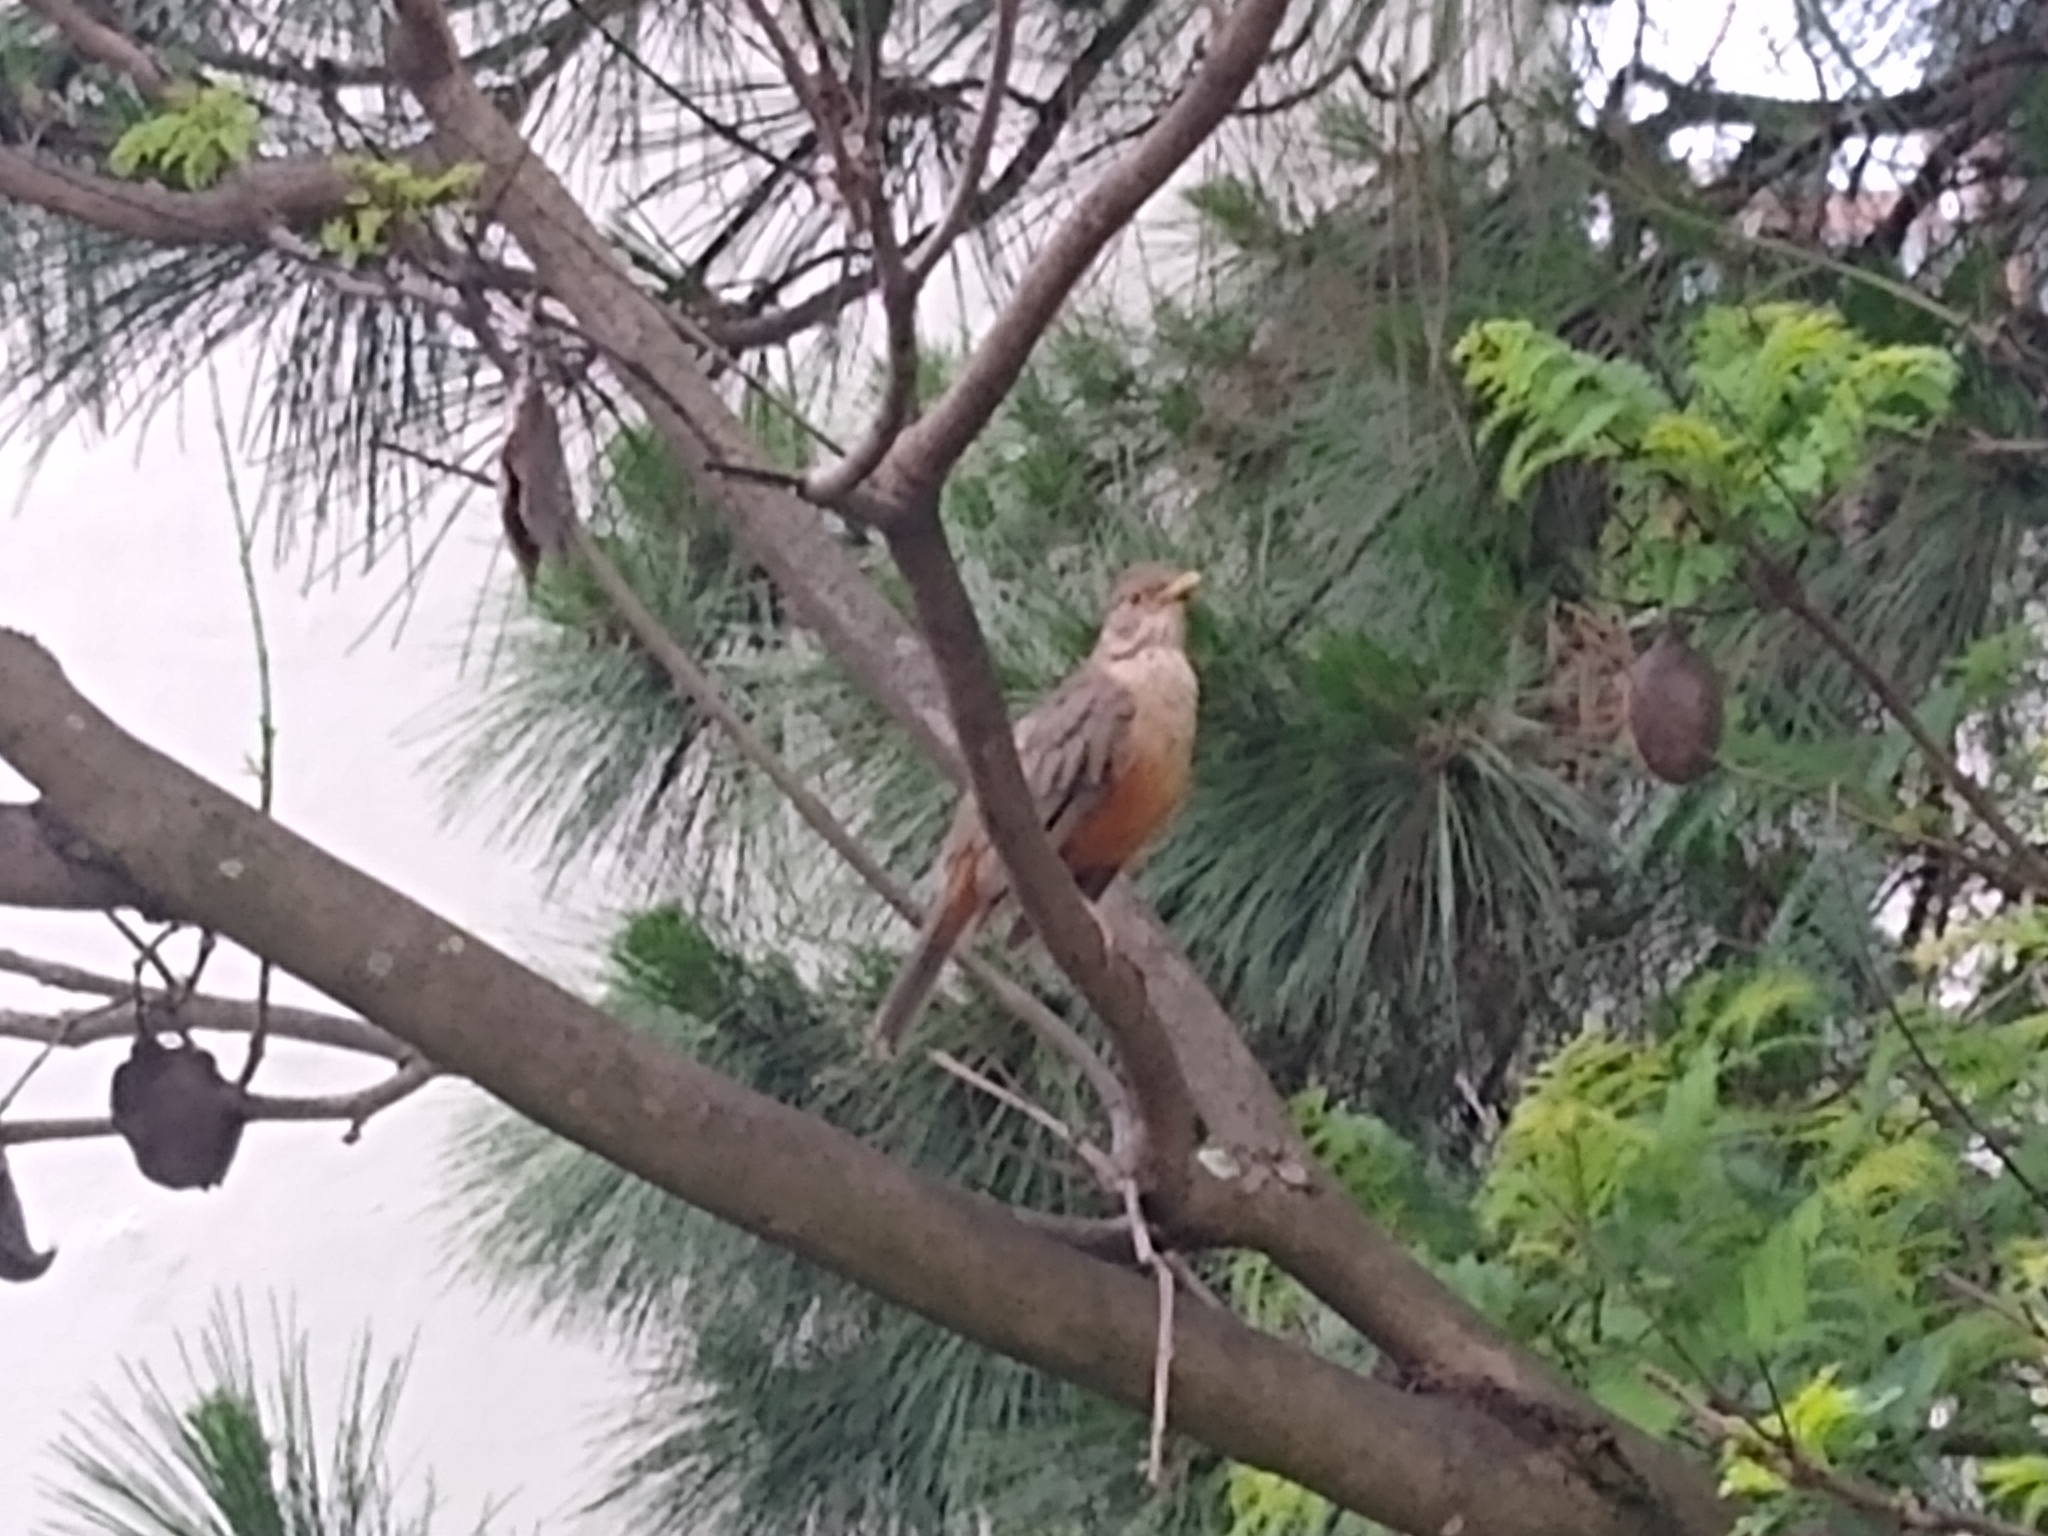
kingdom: Animalia
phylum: Chordata
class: Aves
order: Passeriformes
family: Turdidae
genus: Turdus
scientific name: Turdus rufiventris
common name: Rufous-bellied thrush
